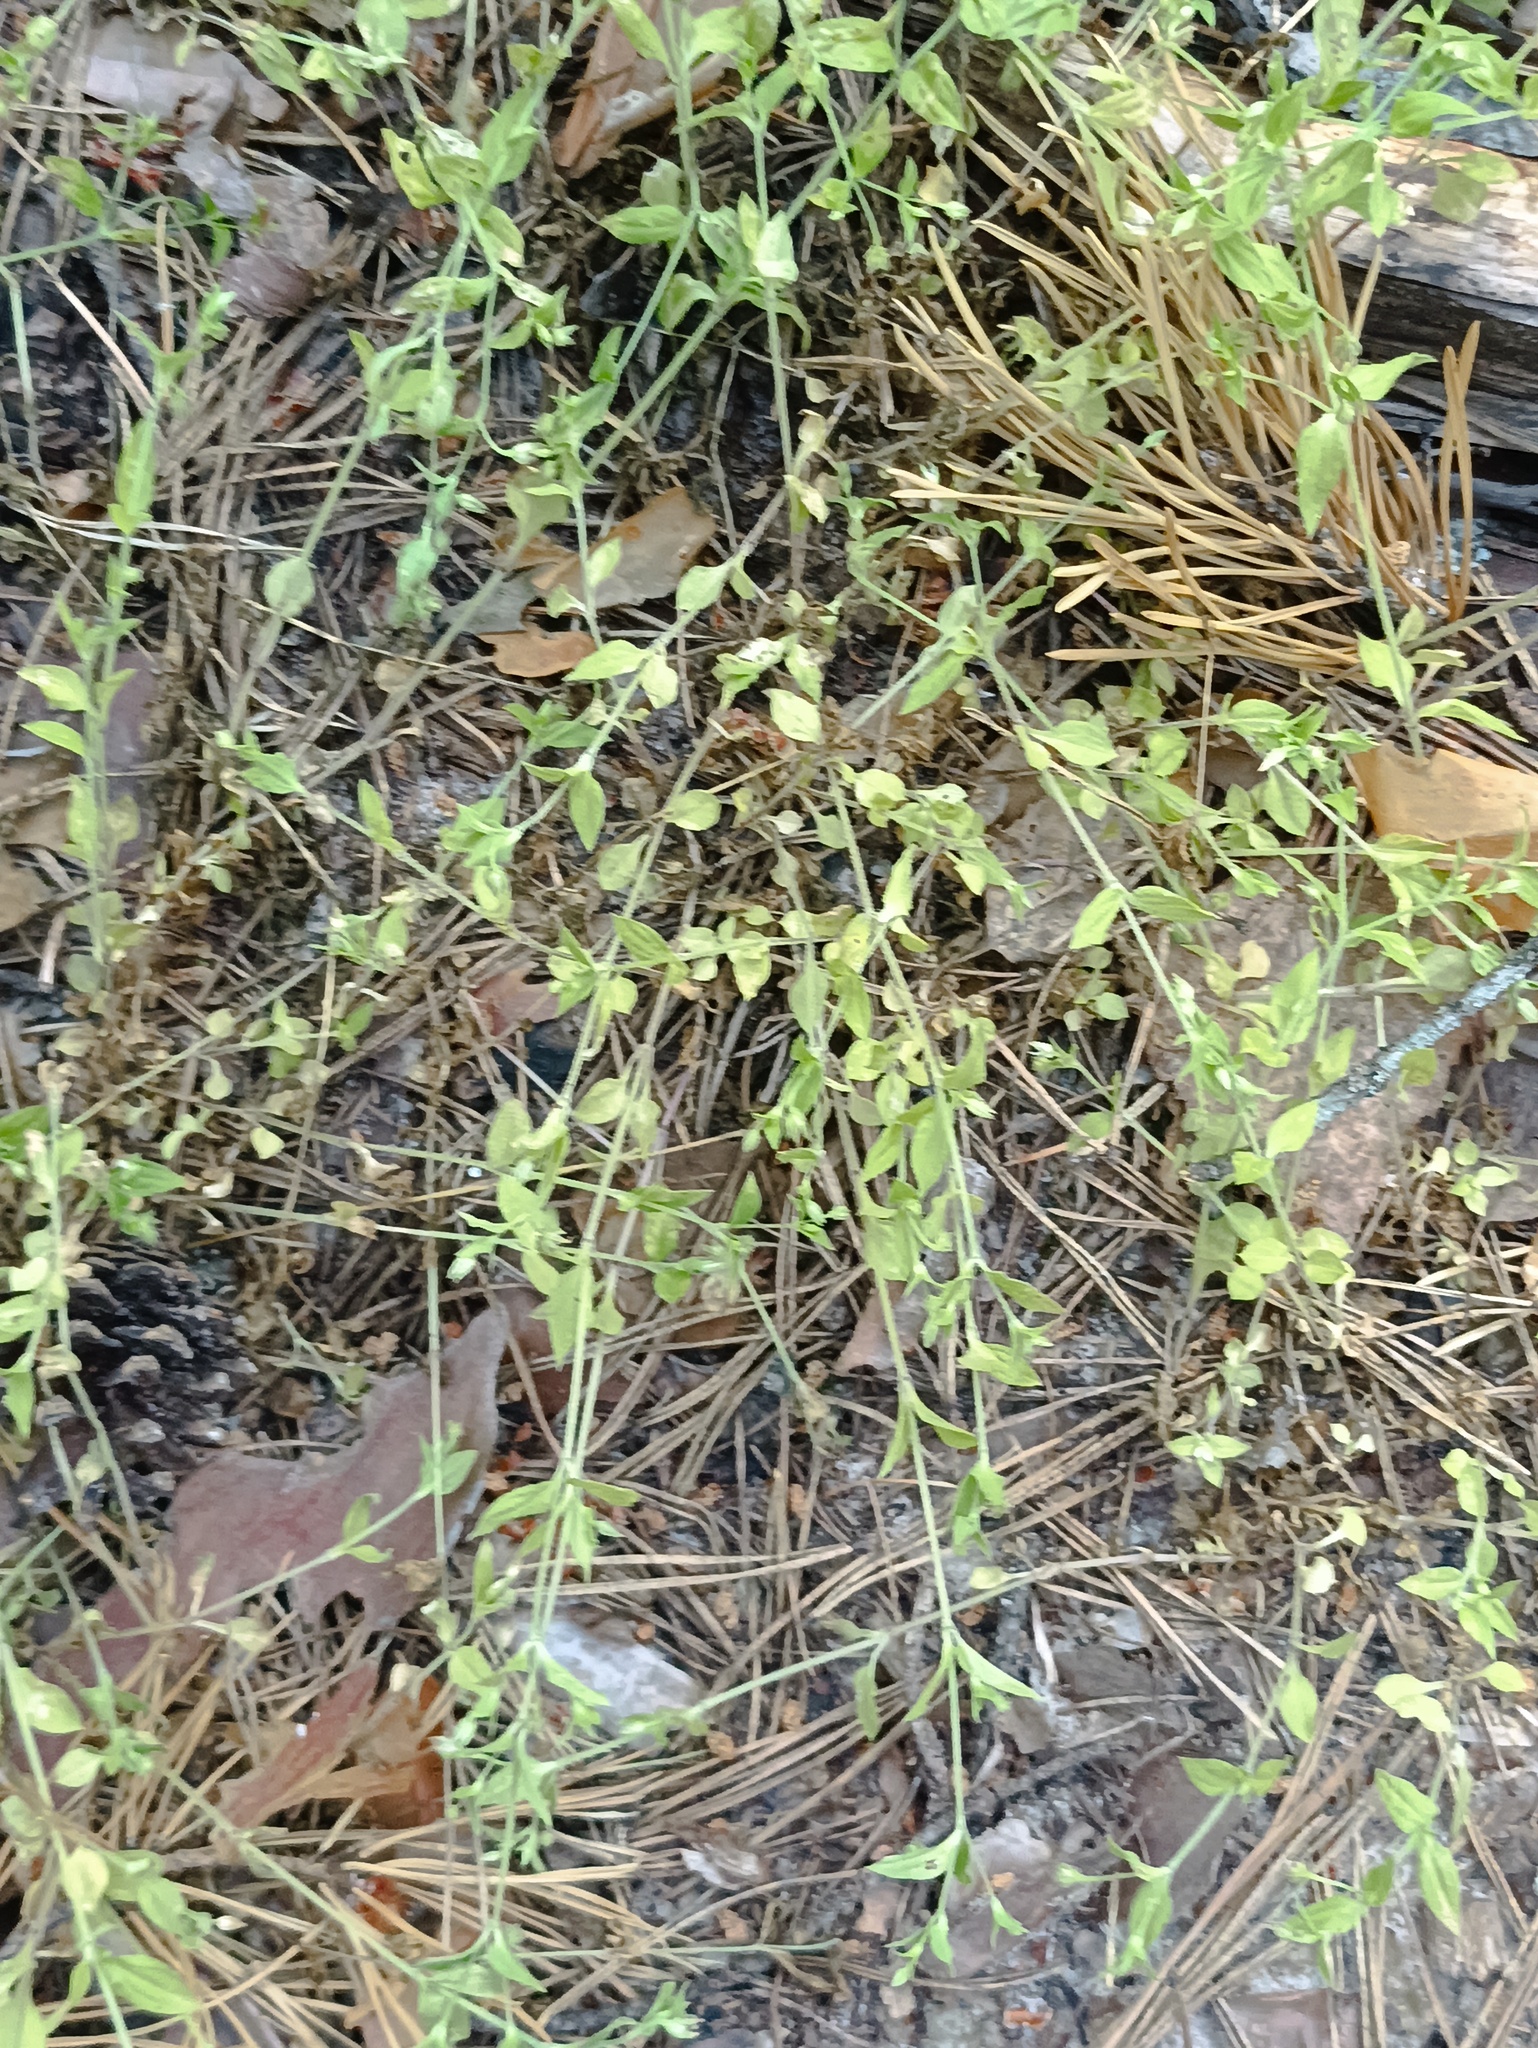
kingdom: Plantae
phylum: Tracheophyta
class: Magnoliopsida
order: Caryophyllales
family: Caryophyllaceae
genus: Moehringia
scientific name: Moehringia trinervia
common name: Three-nerved sandwort
